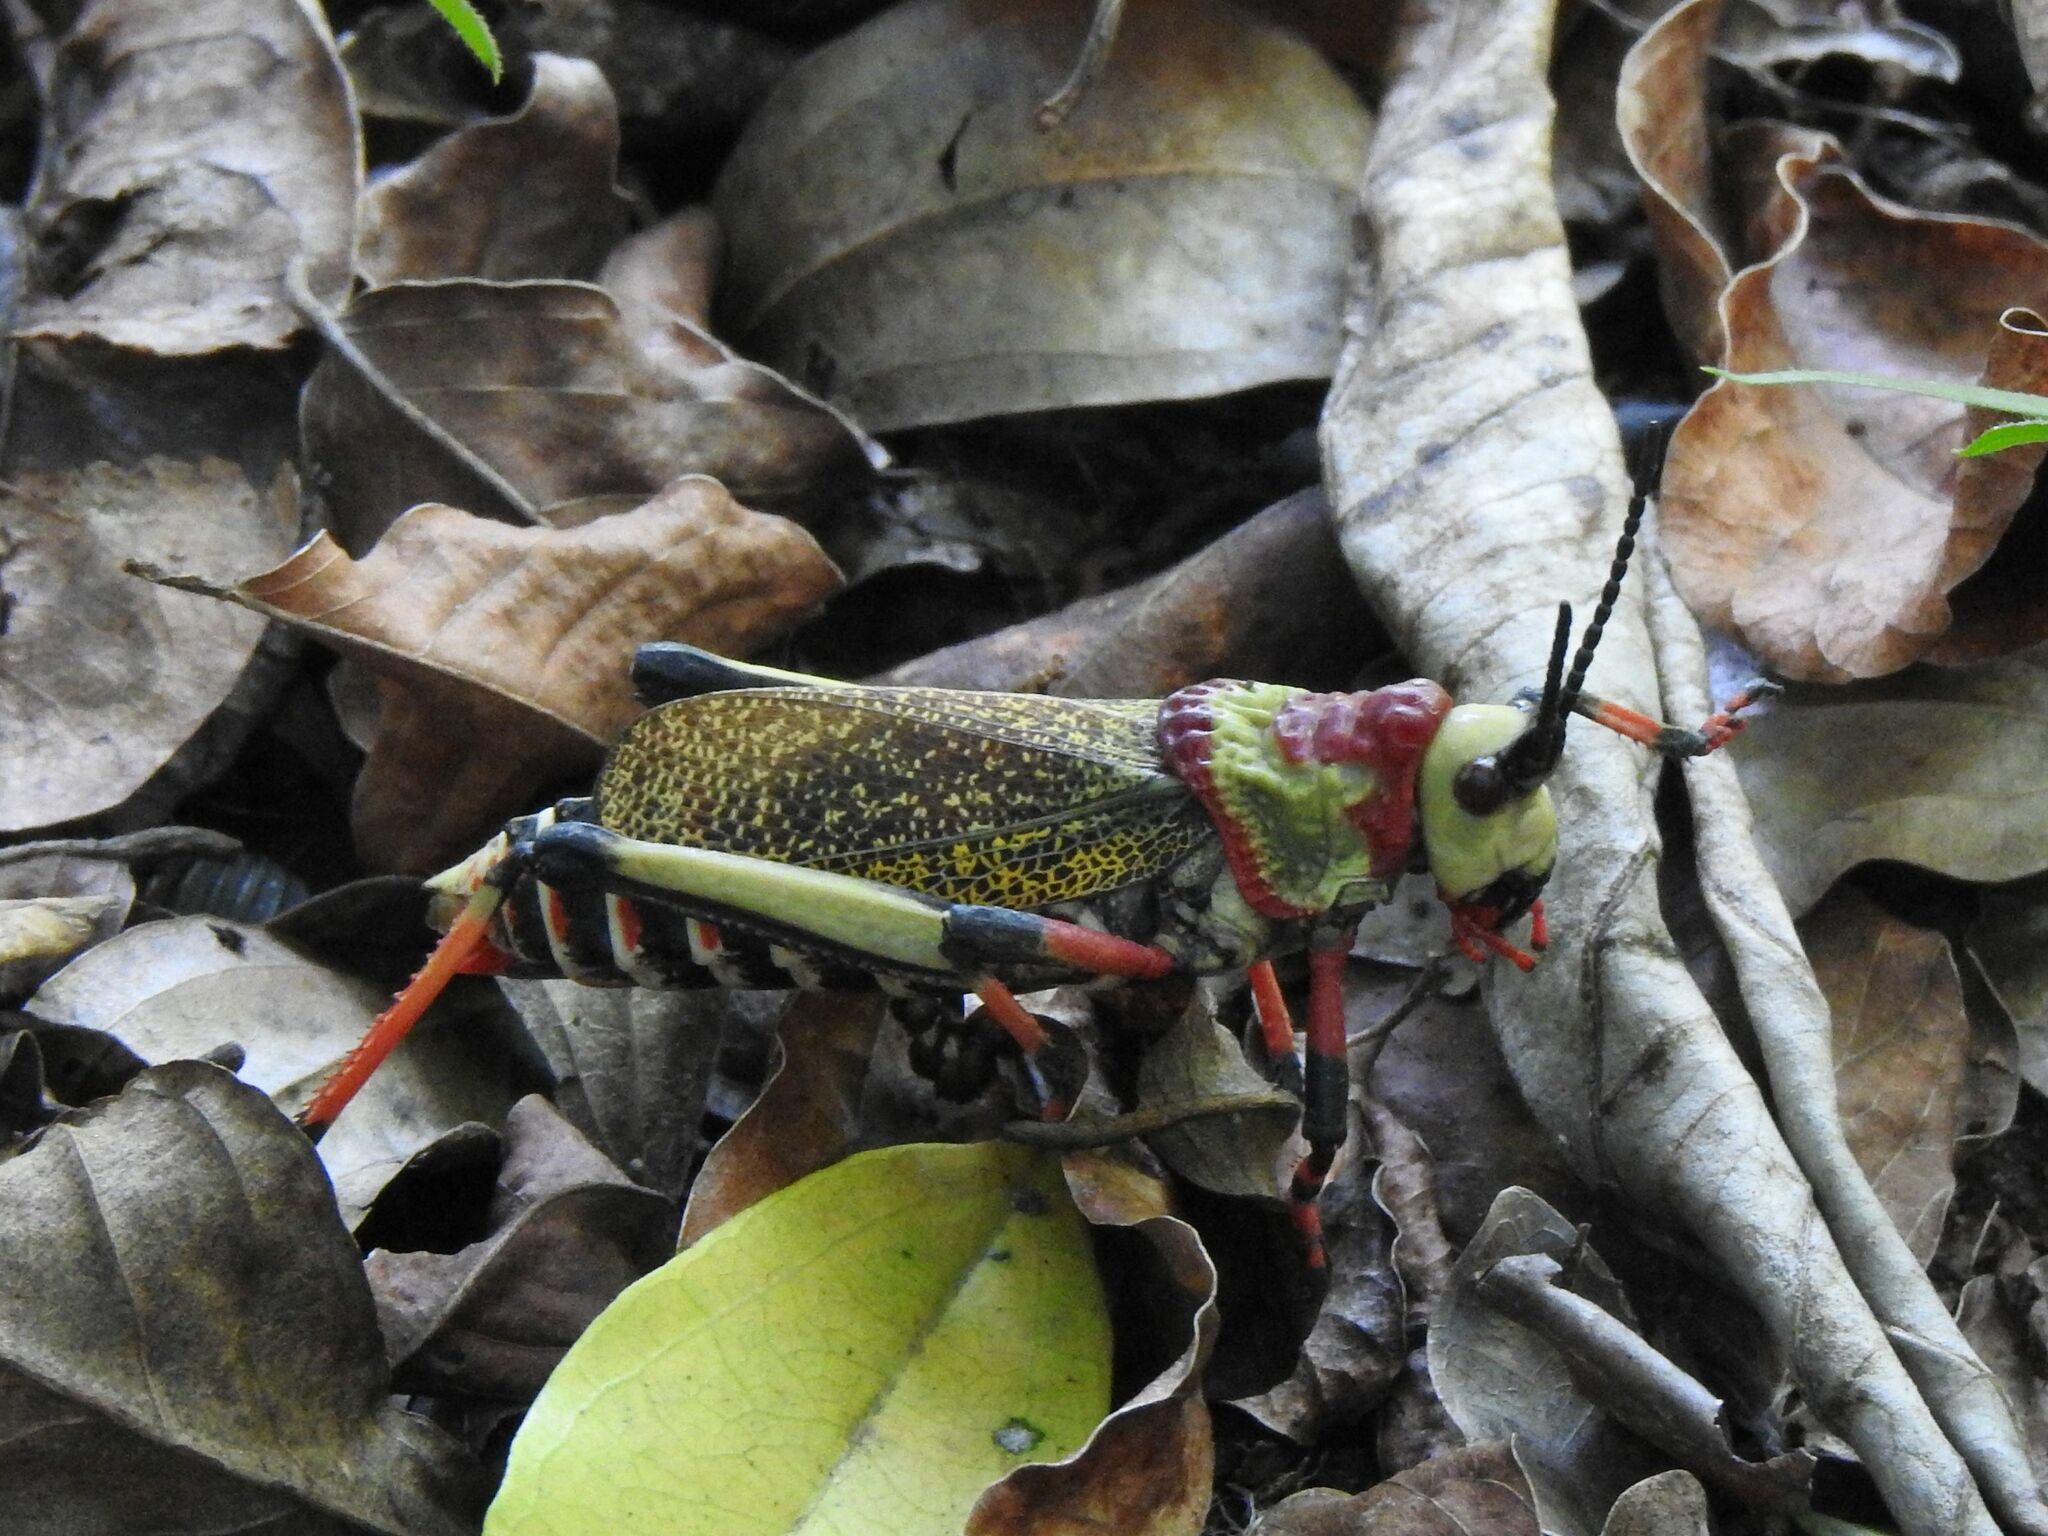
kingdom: Animalia
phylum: Arthropoda
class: Insecta
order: Orthoptera
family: Pyrgomorphidae
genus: Dictyophorus
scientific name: Dictyophorus spumans
